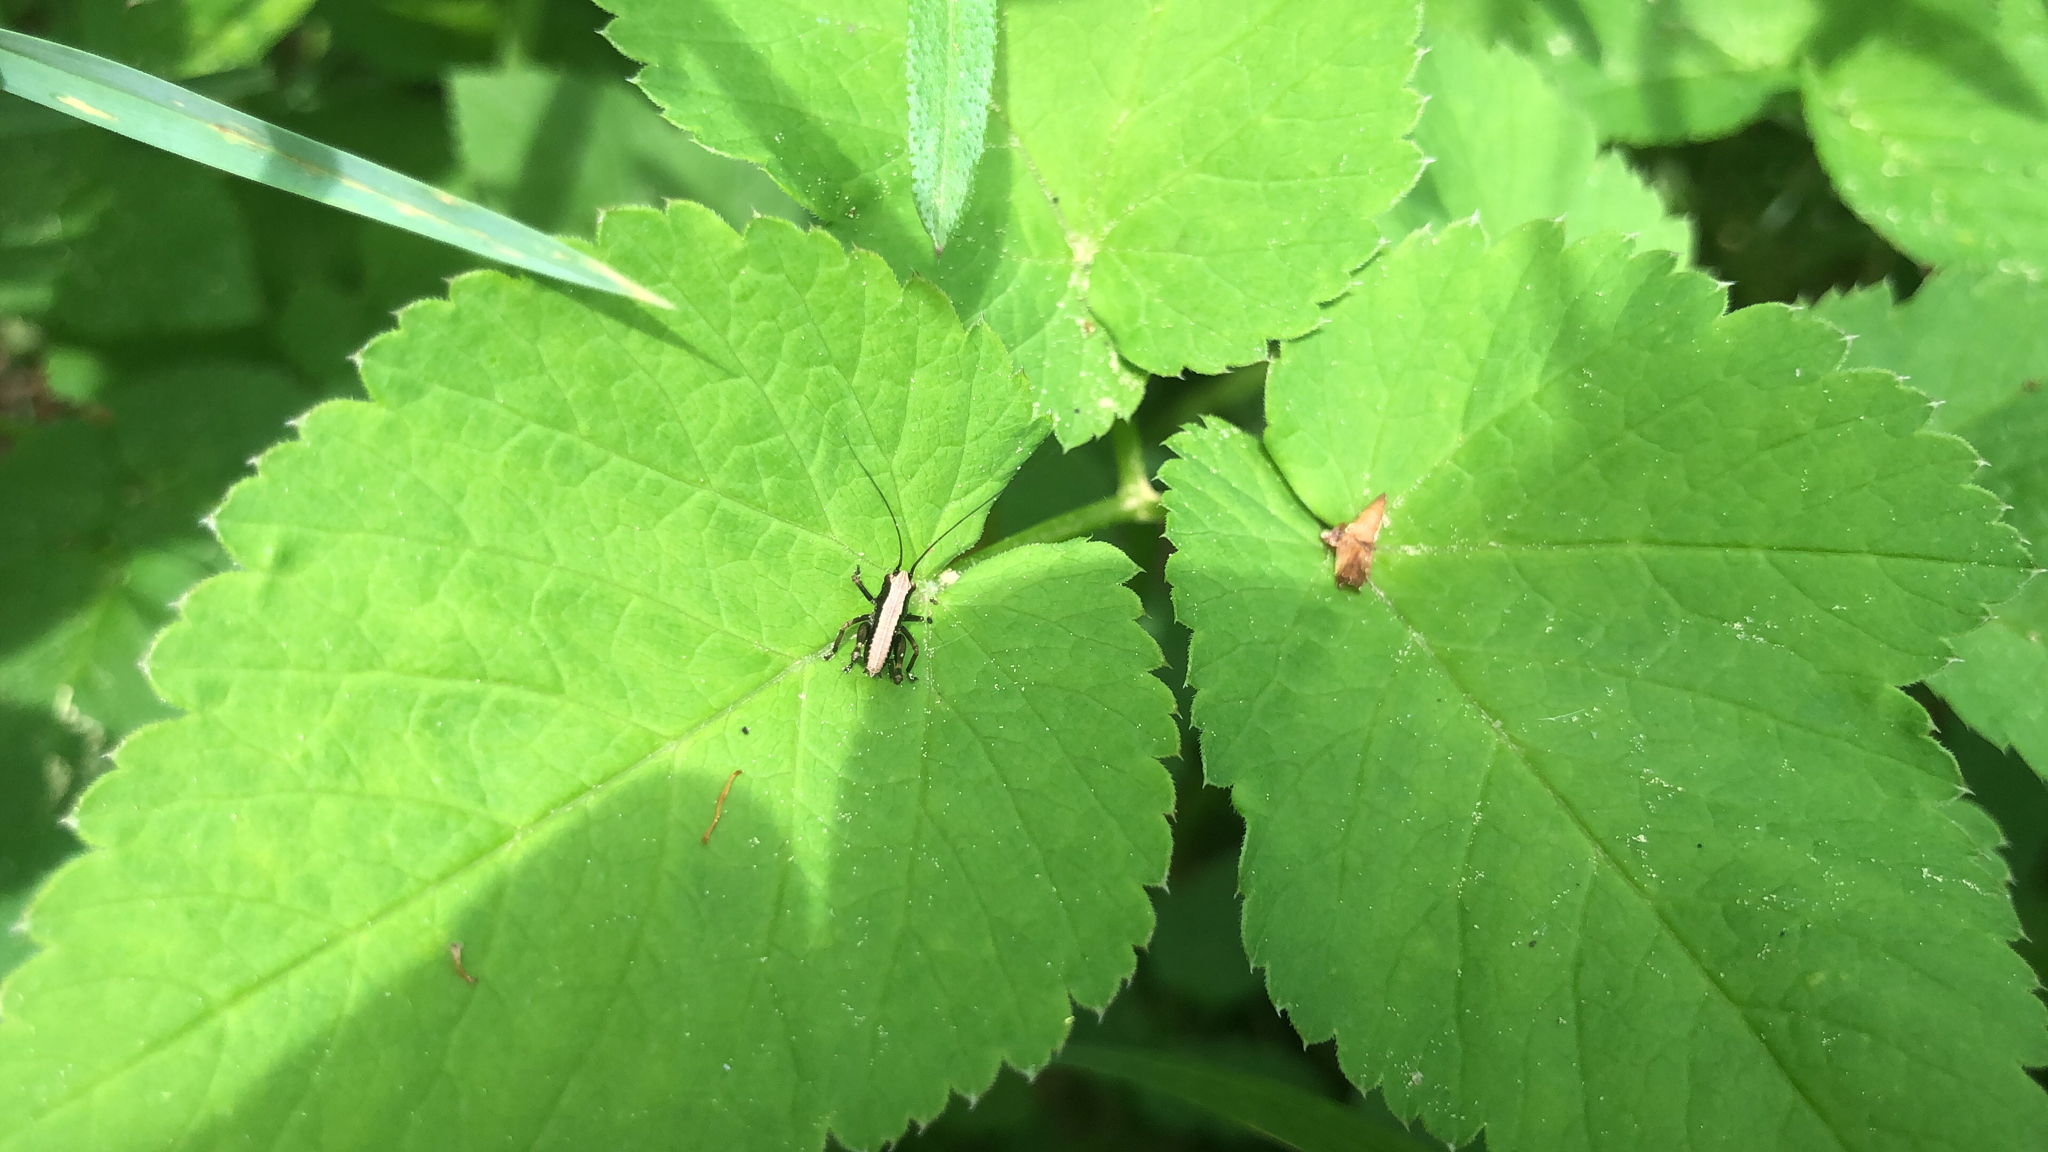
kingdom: Animalia
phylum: Arthropoda
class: Insecta
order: Orthoptera
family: Tettigoniidae
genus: Pholidoptera
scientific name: Pholidoptera griseoaptera
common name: Dark bush-cricket
